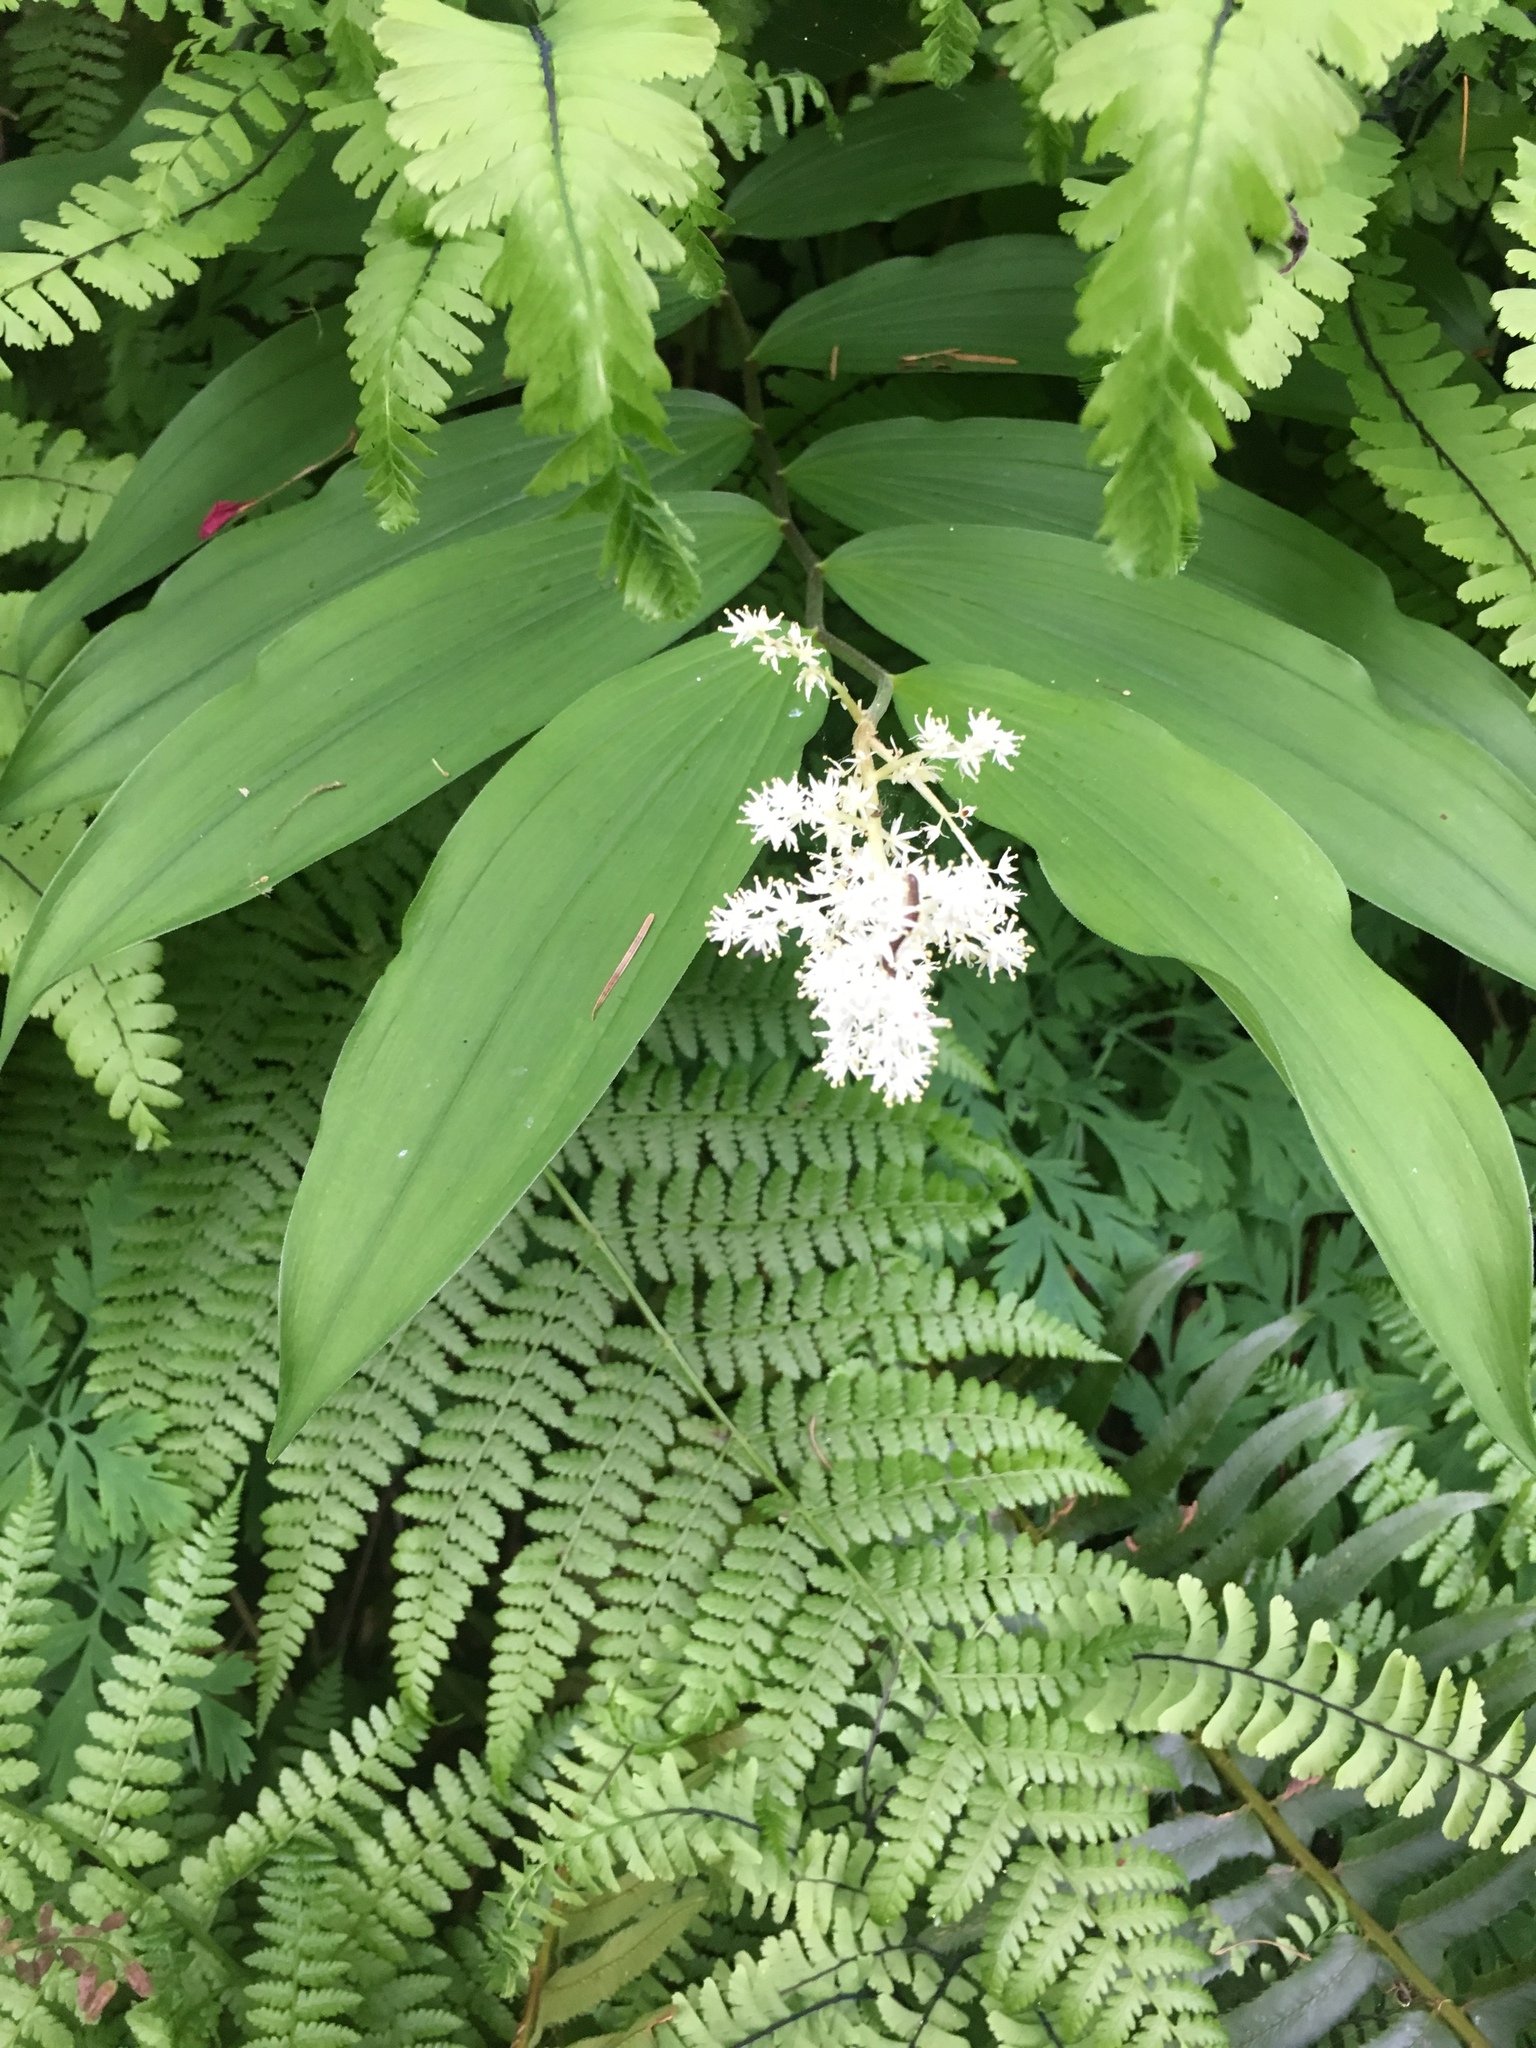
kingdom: Plantae
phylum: Tracheophyta
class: Liliopsida
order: Asparagales
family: Asparagaceae
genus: Maianthemum
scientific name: Maianthemum racemosum
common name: False spikenard
